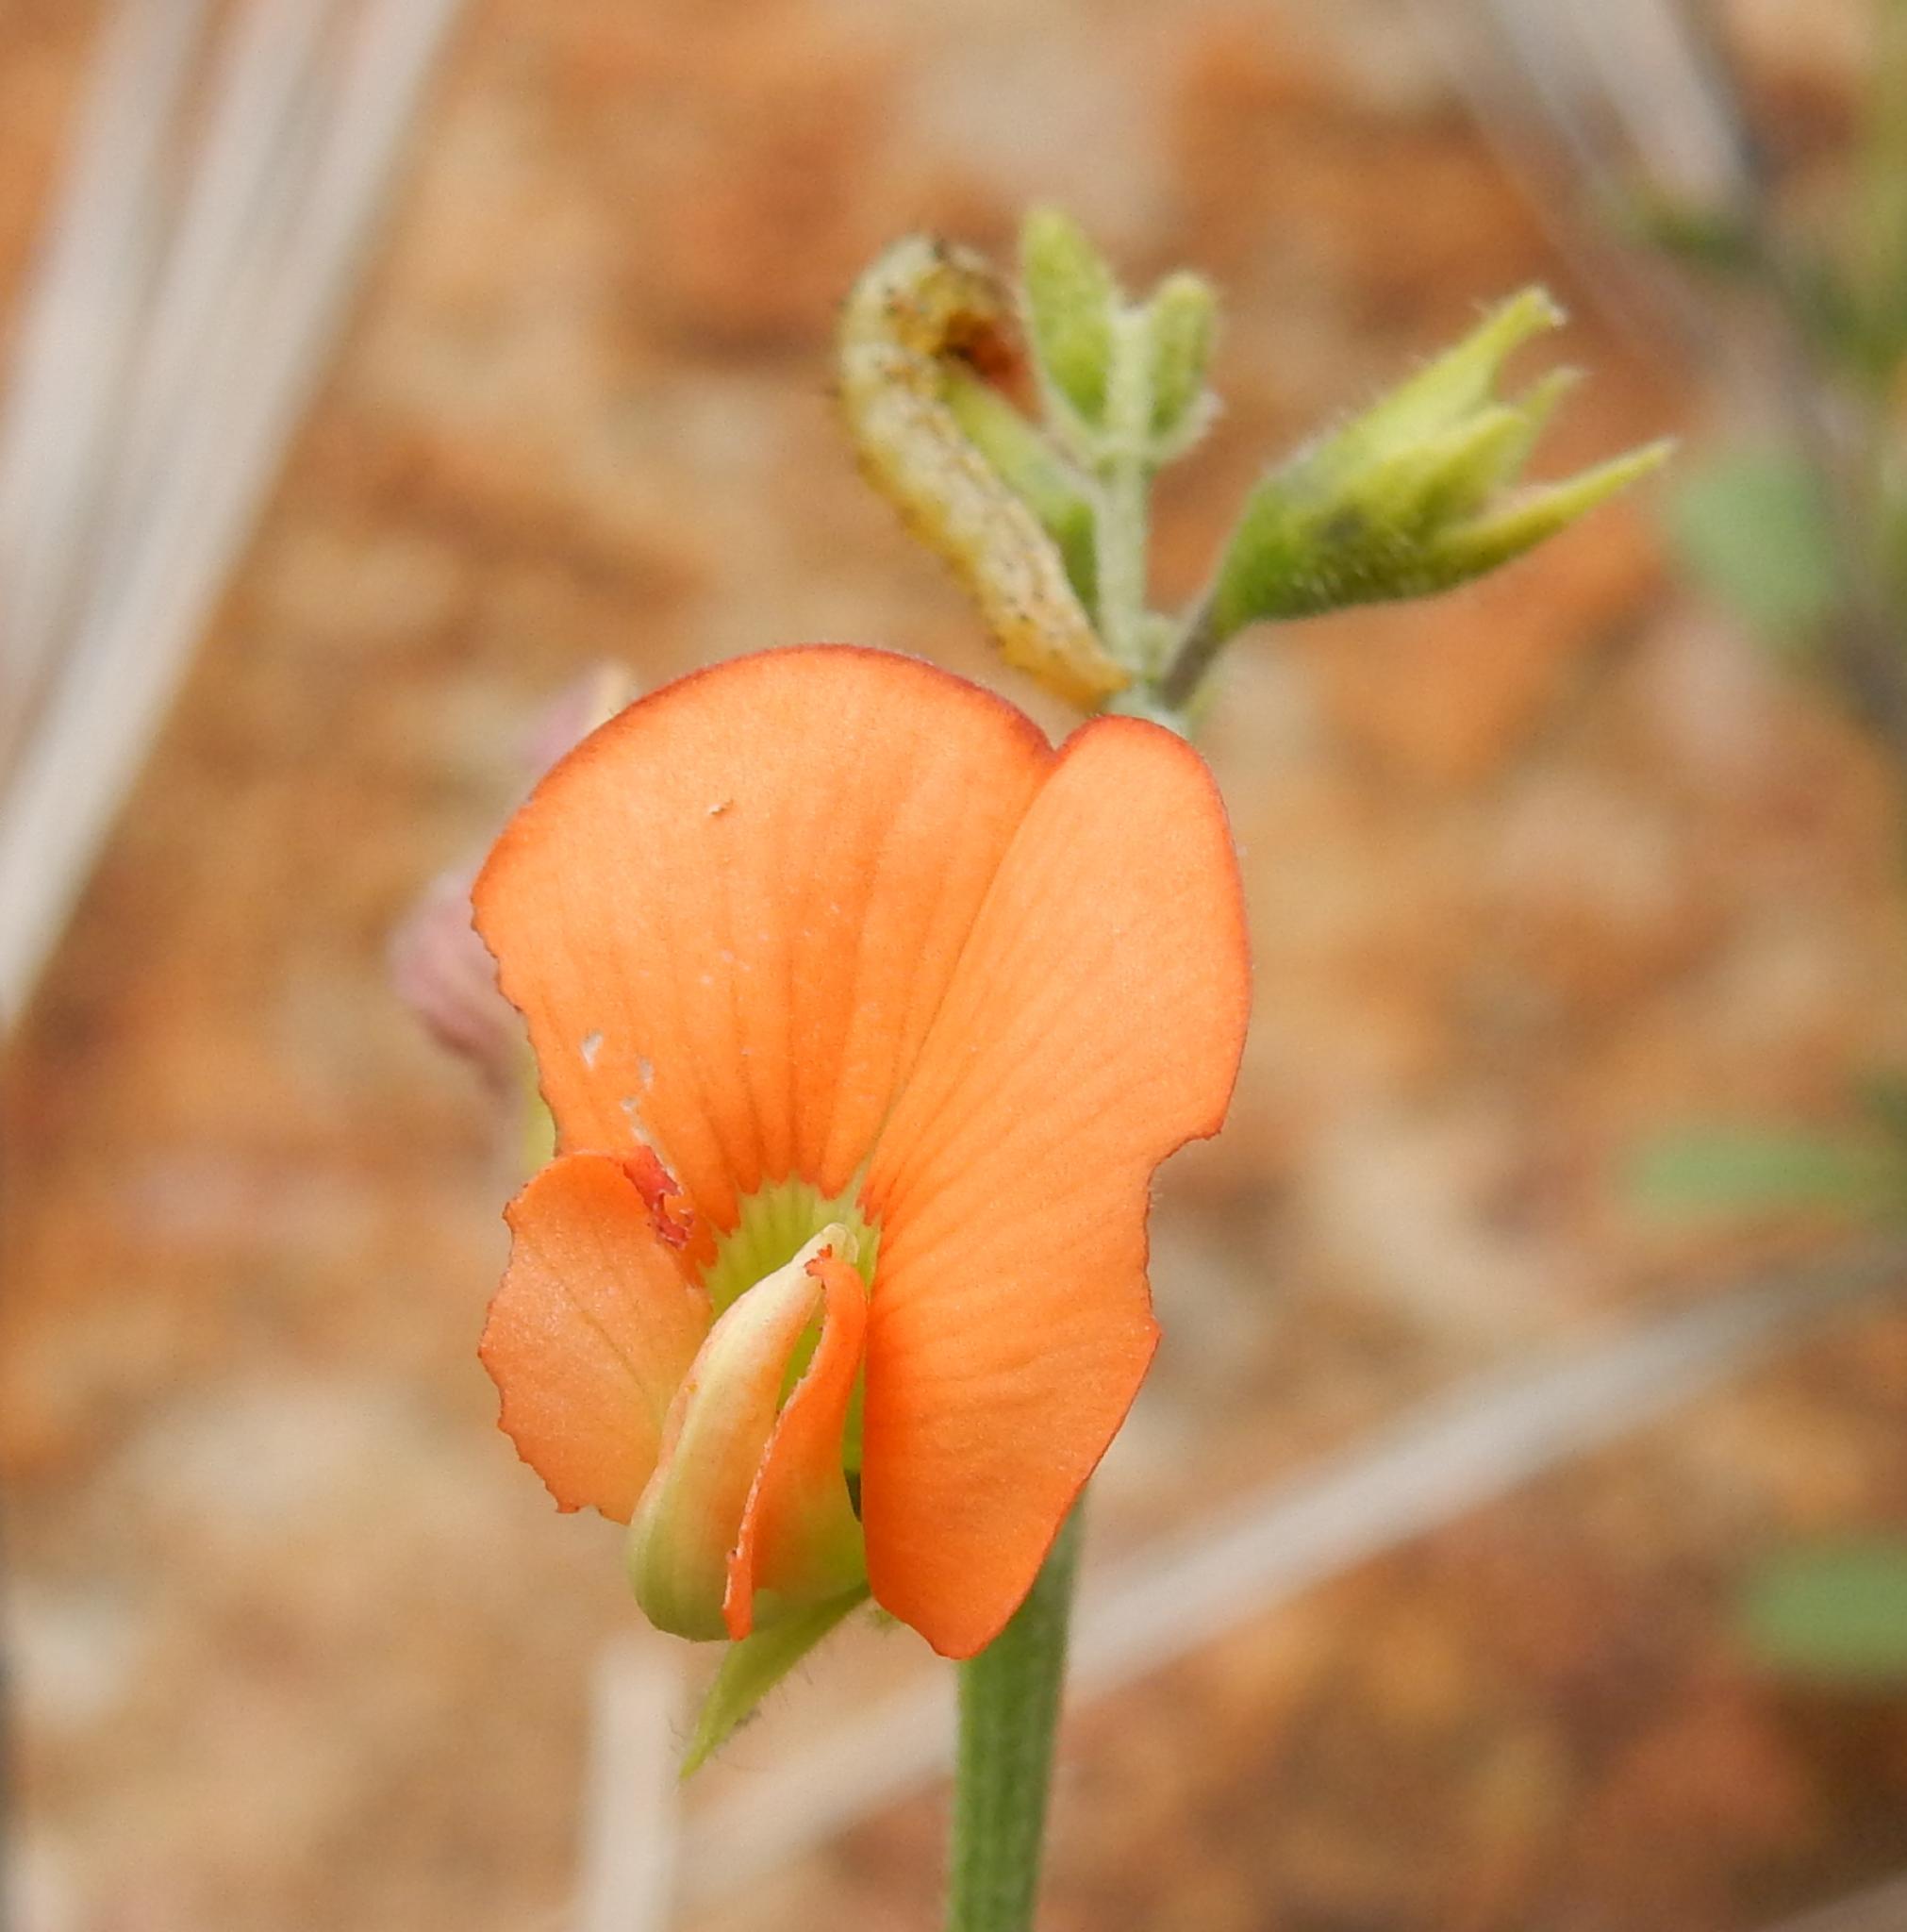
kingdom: Plantae
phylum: Tracheophyta
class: Magnoliopsida
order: Fabales
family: Fabaceae
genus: Tephrosia
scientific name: Tephrosia elongata
